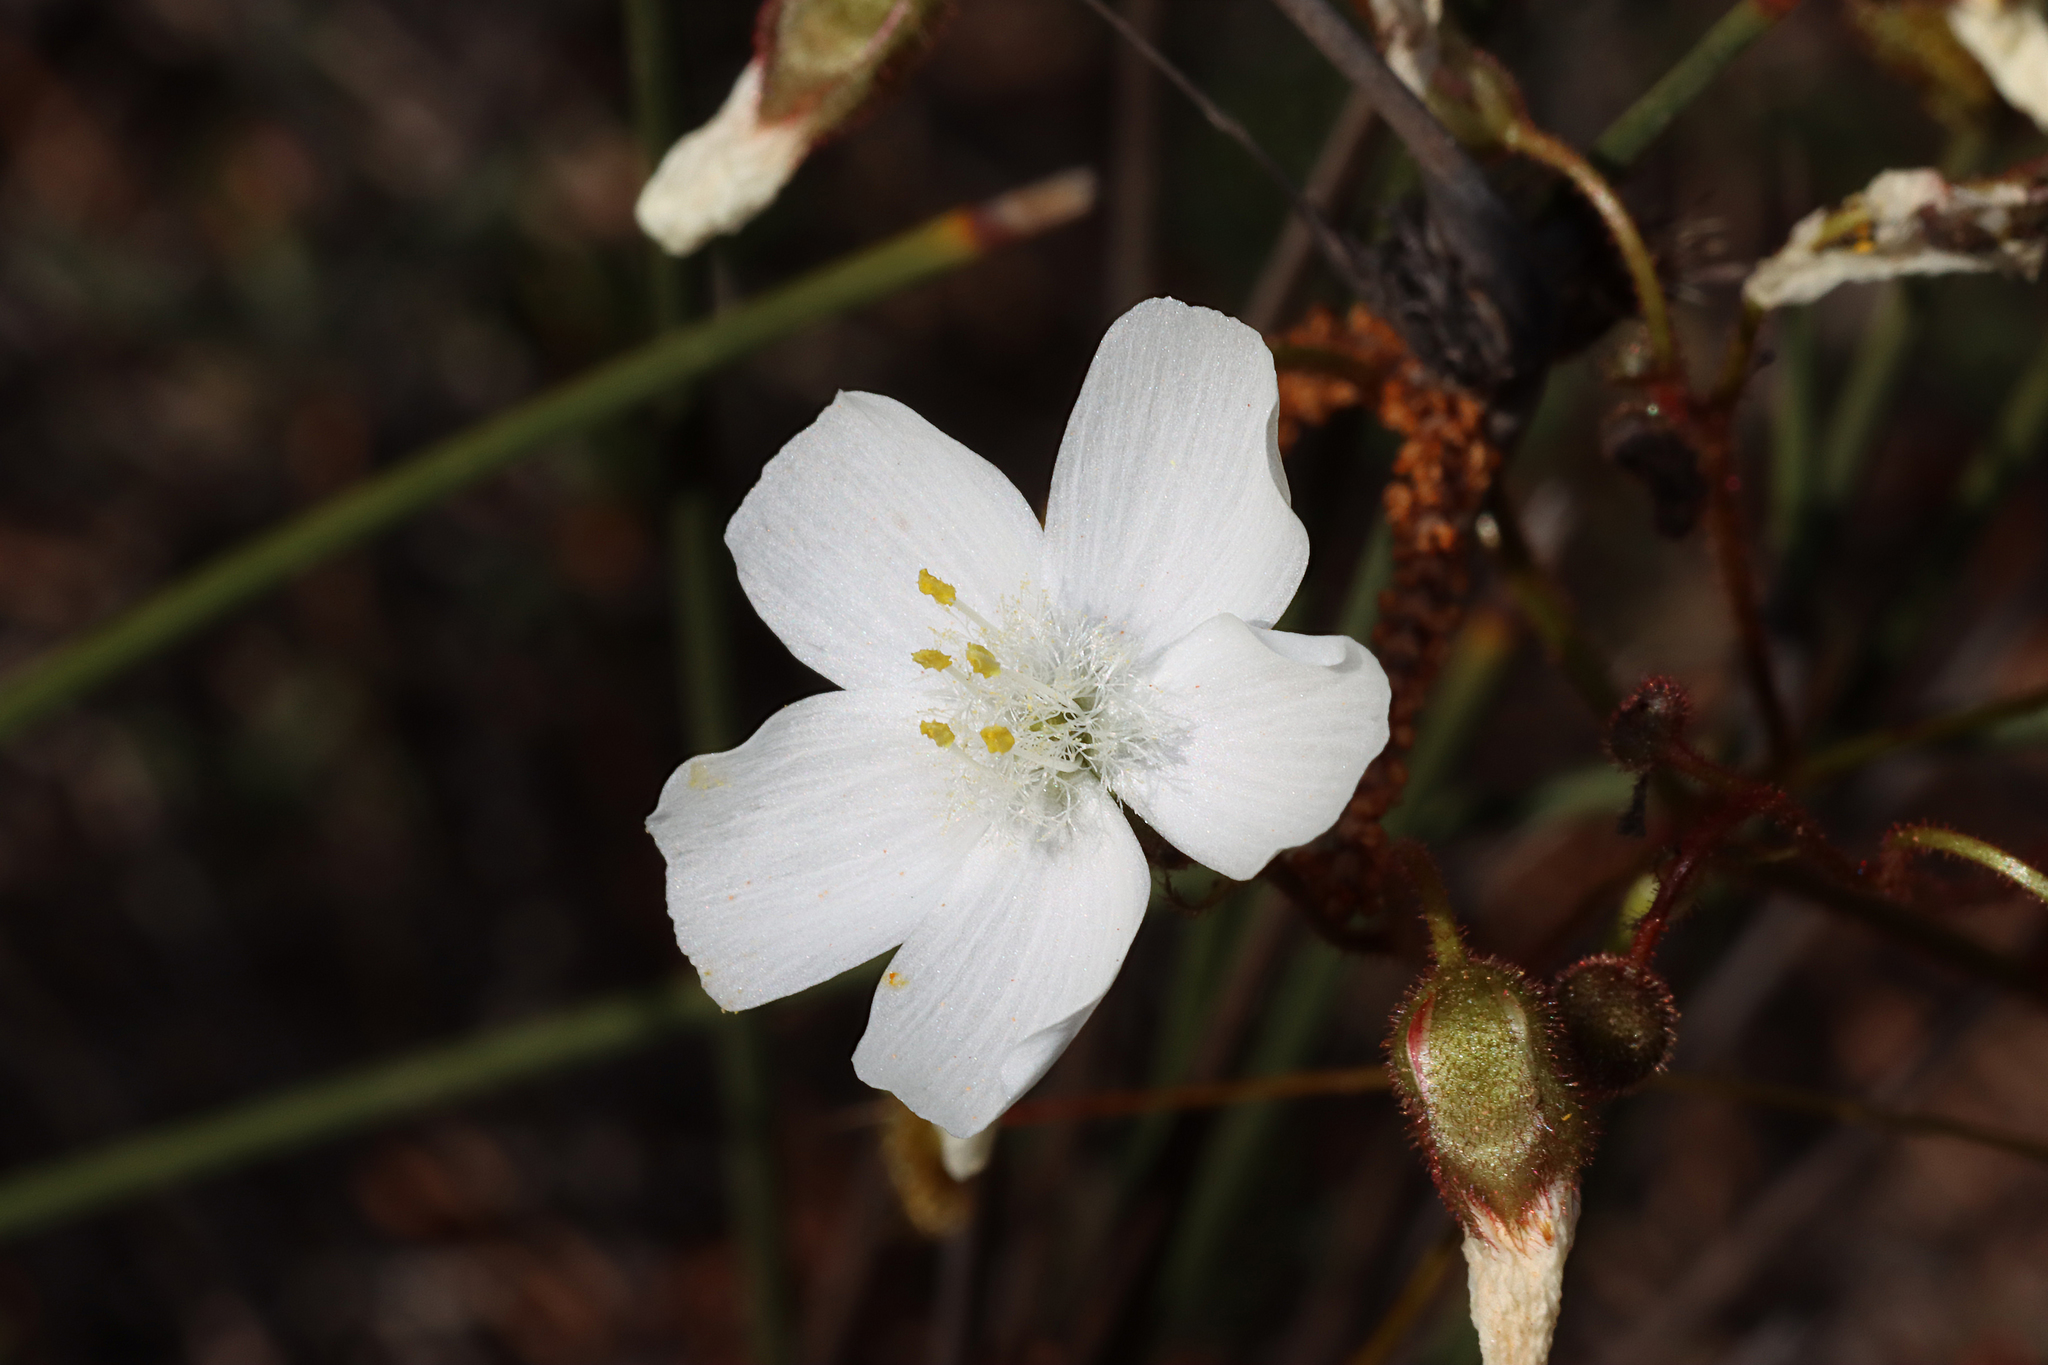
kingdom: Plantae
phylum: Tracheophyta
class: Magnoliopsida
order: Caryophyllales
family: Droseraceae
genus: Drosera
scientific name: Drosera macrantha
